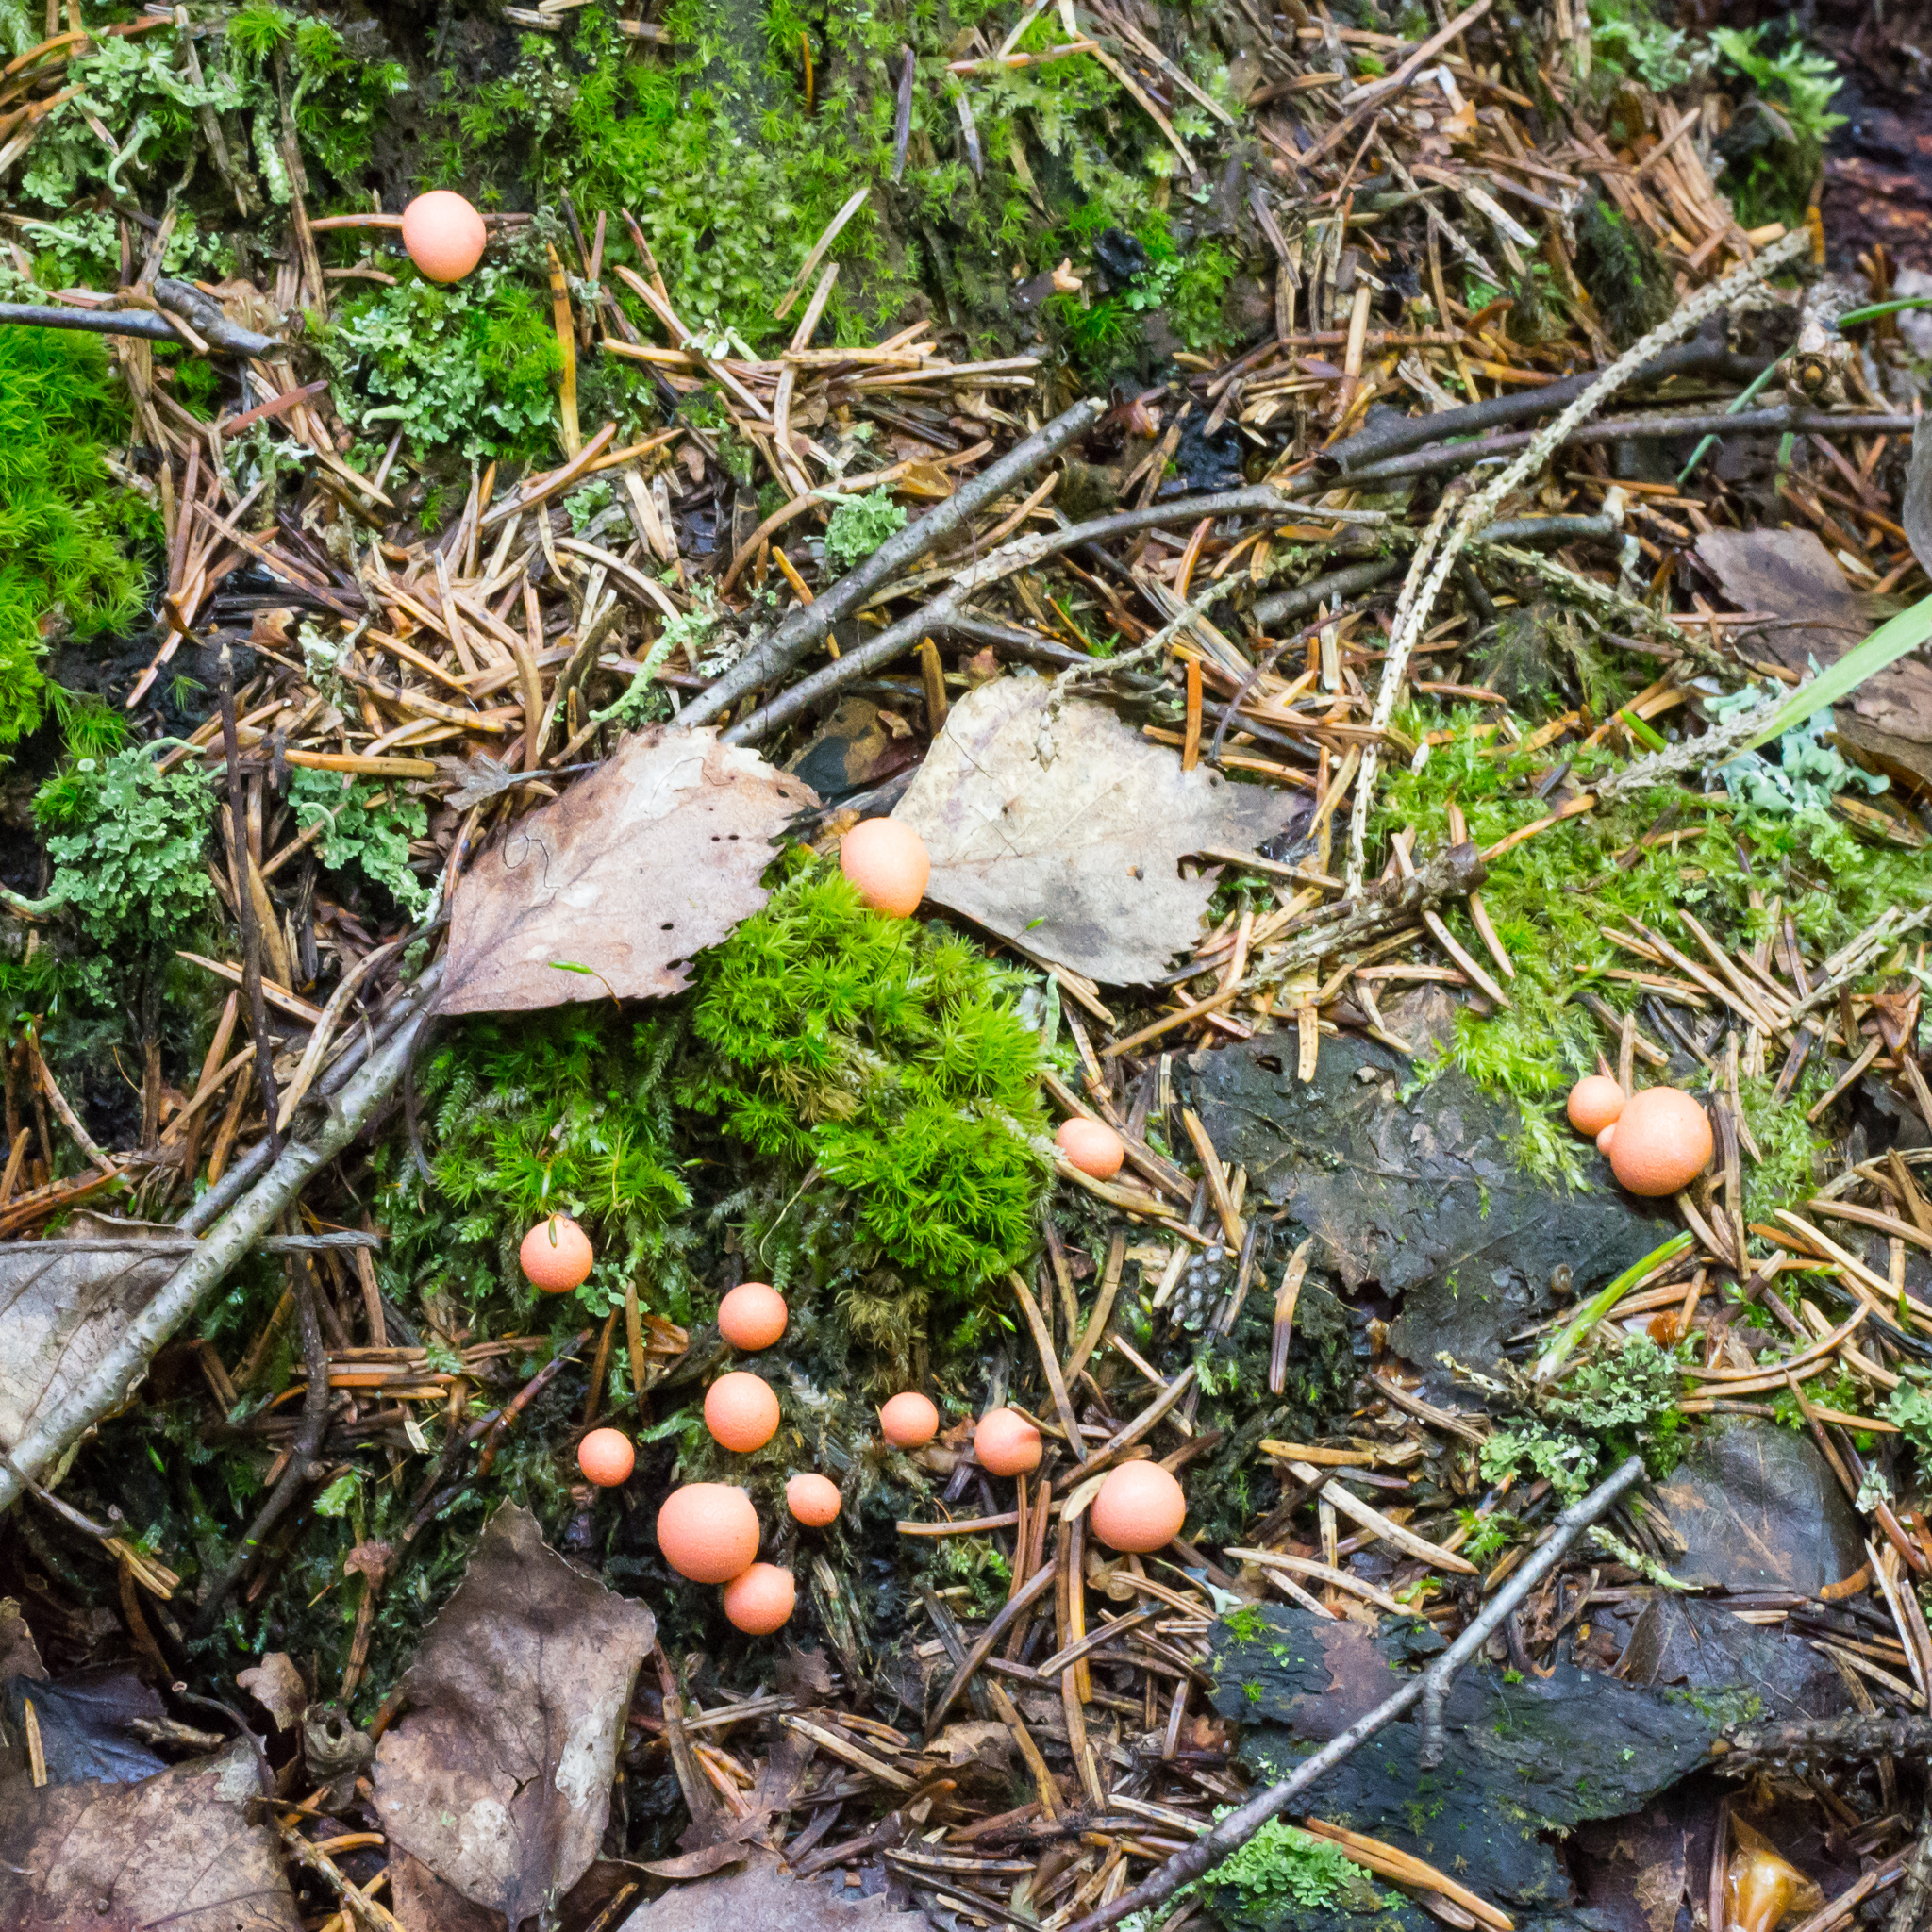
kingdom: Protozoa
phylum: Mycetozoa
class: Myxomycetes
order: Cribrariales
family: Tubiferaceae
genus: Lycogala
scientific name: Lycogala epidendrum
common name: Wolf's milk
